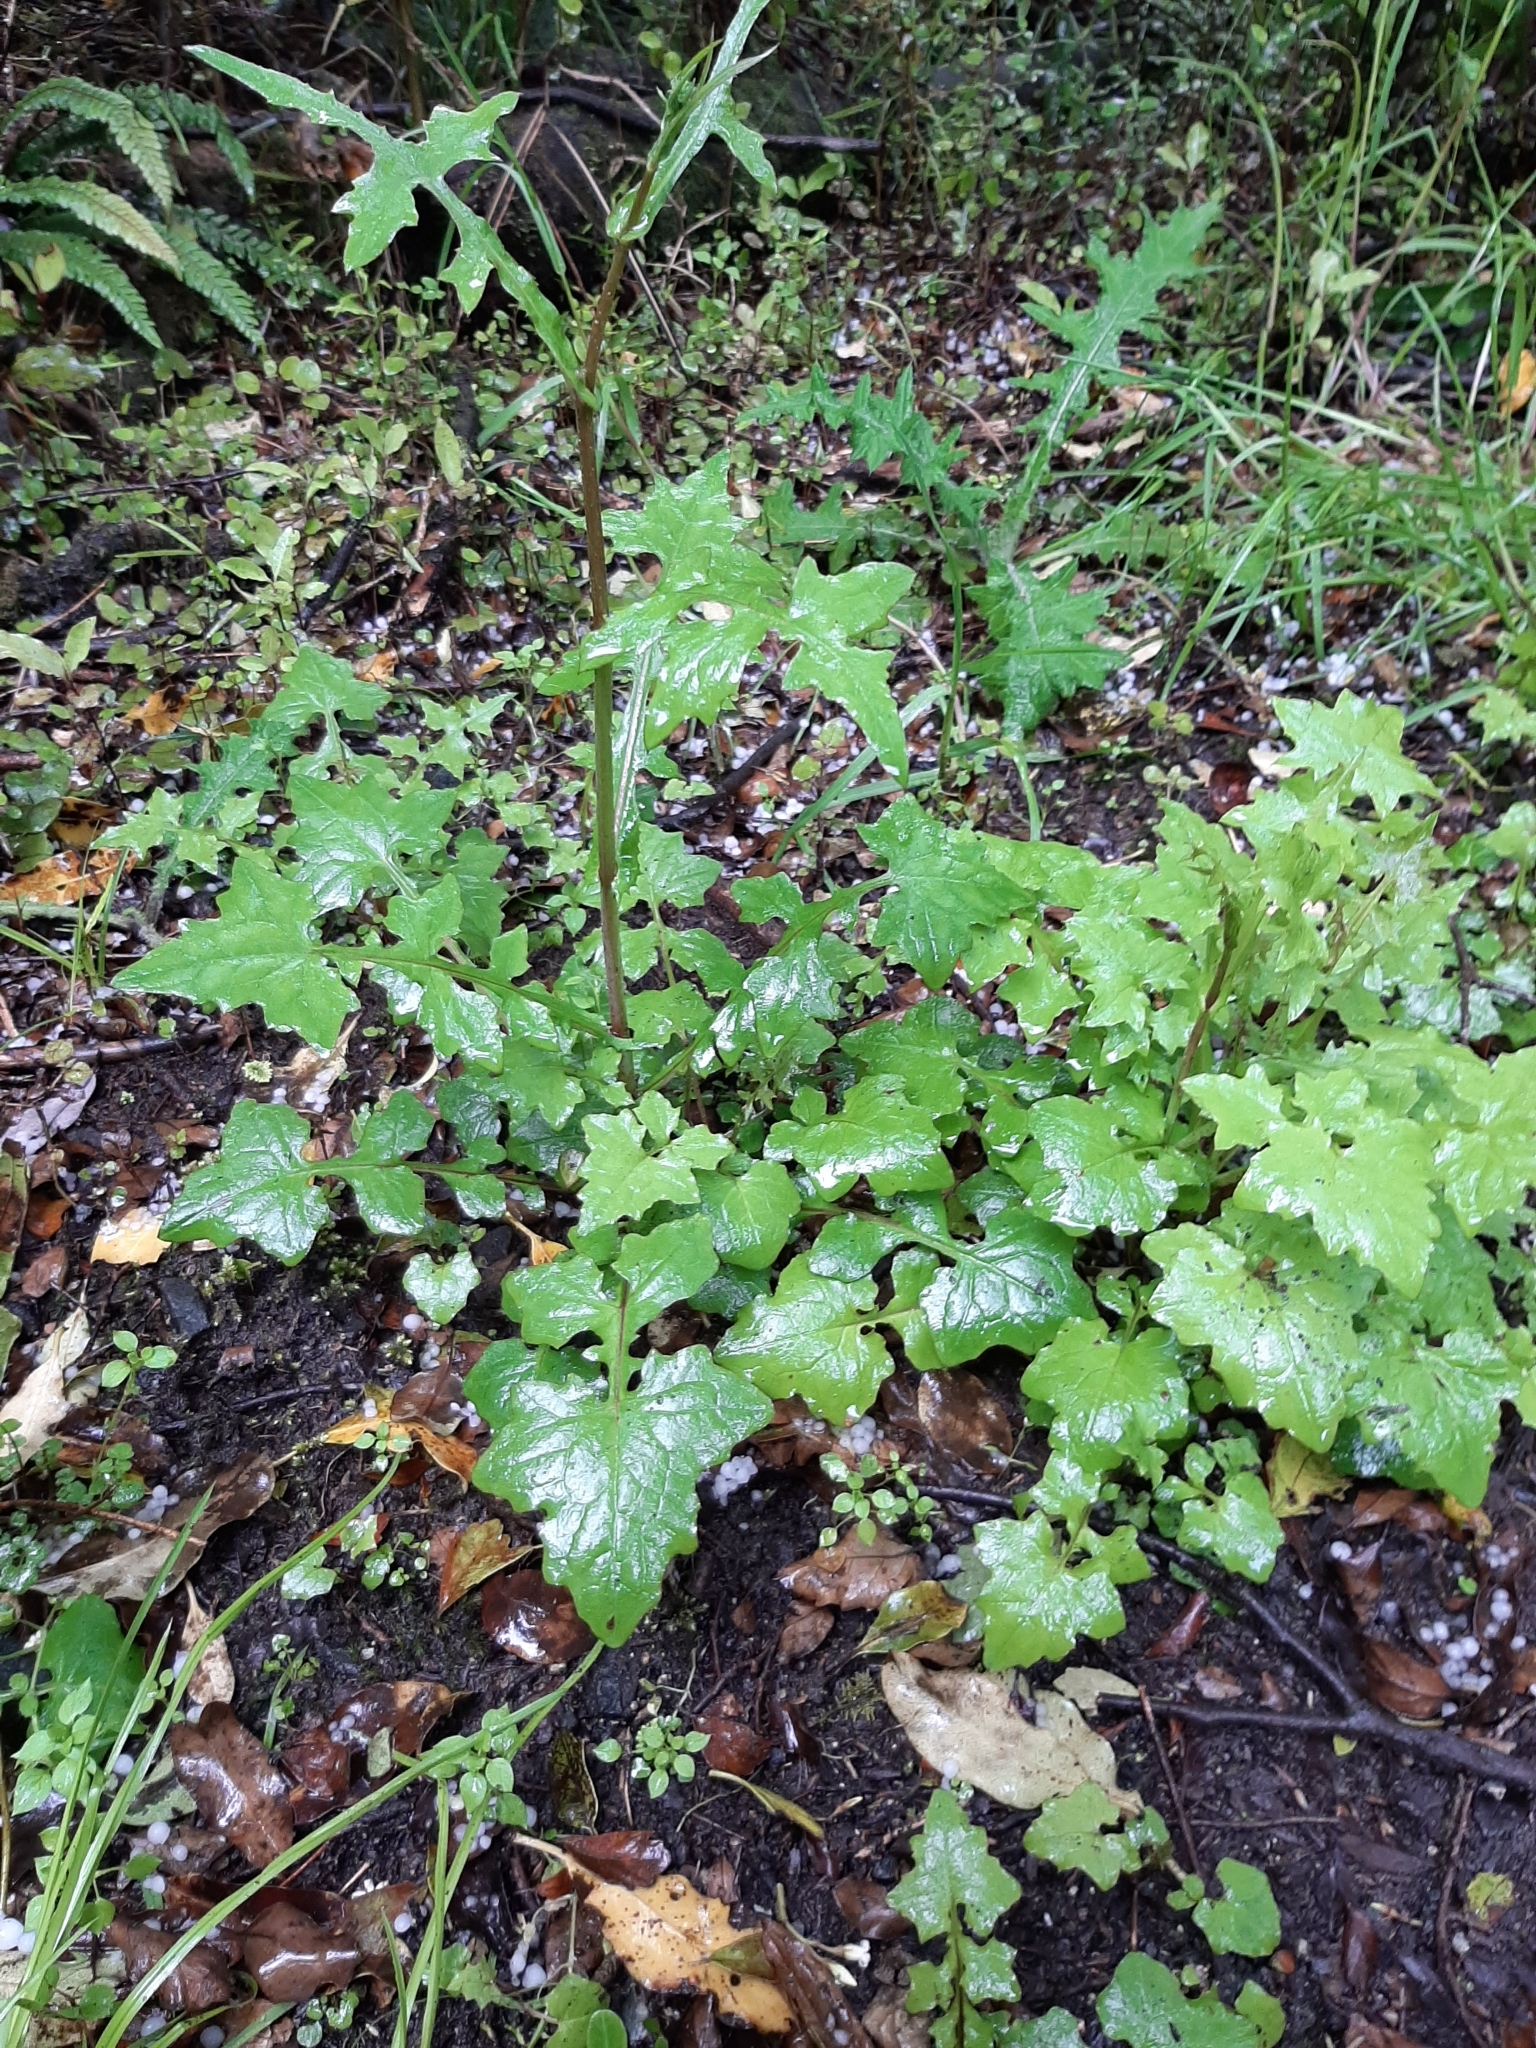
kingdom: Plantae
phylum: Tracheophyta
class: Magnoliopsida
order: Asterales
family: Asteraceae
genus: Mycelis
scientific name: Mycelis muralis
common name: Wall lettuce
